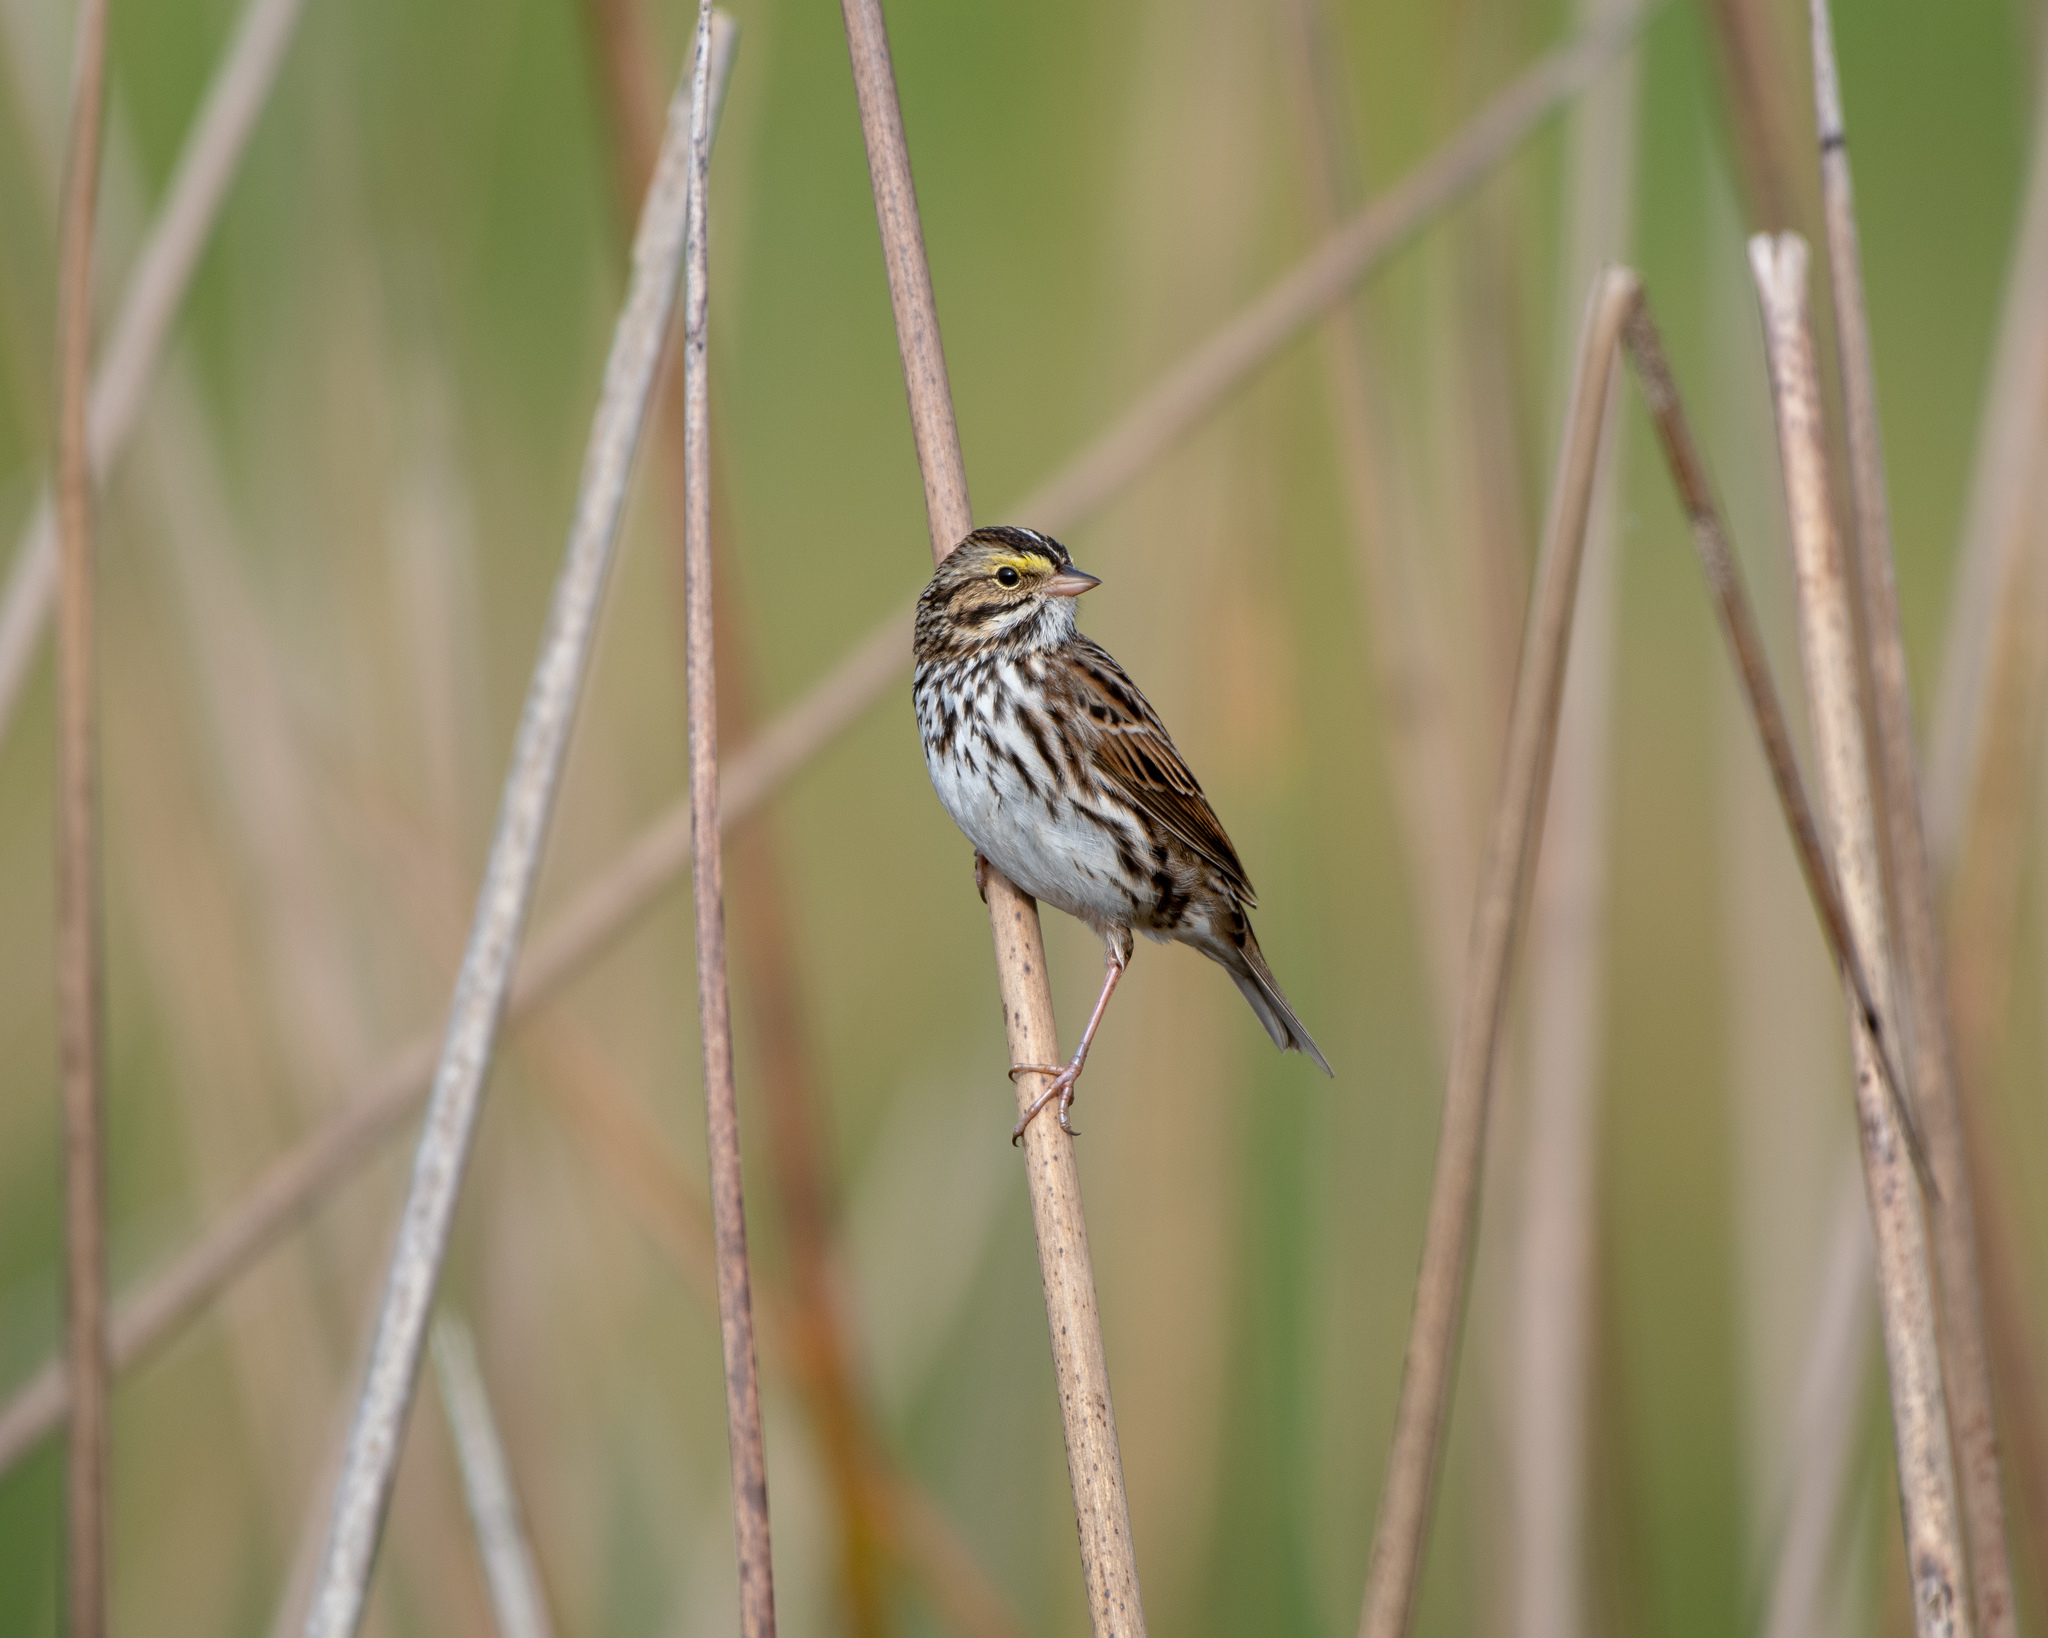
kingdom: Animalia
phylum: Chordata
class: Aves
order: Passeriformes
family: Passerellidae
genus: Passerculus
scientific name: Passerculus sandwichensis
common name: Savannah sparrow
